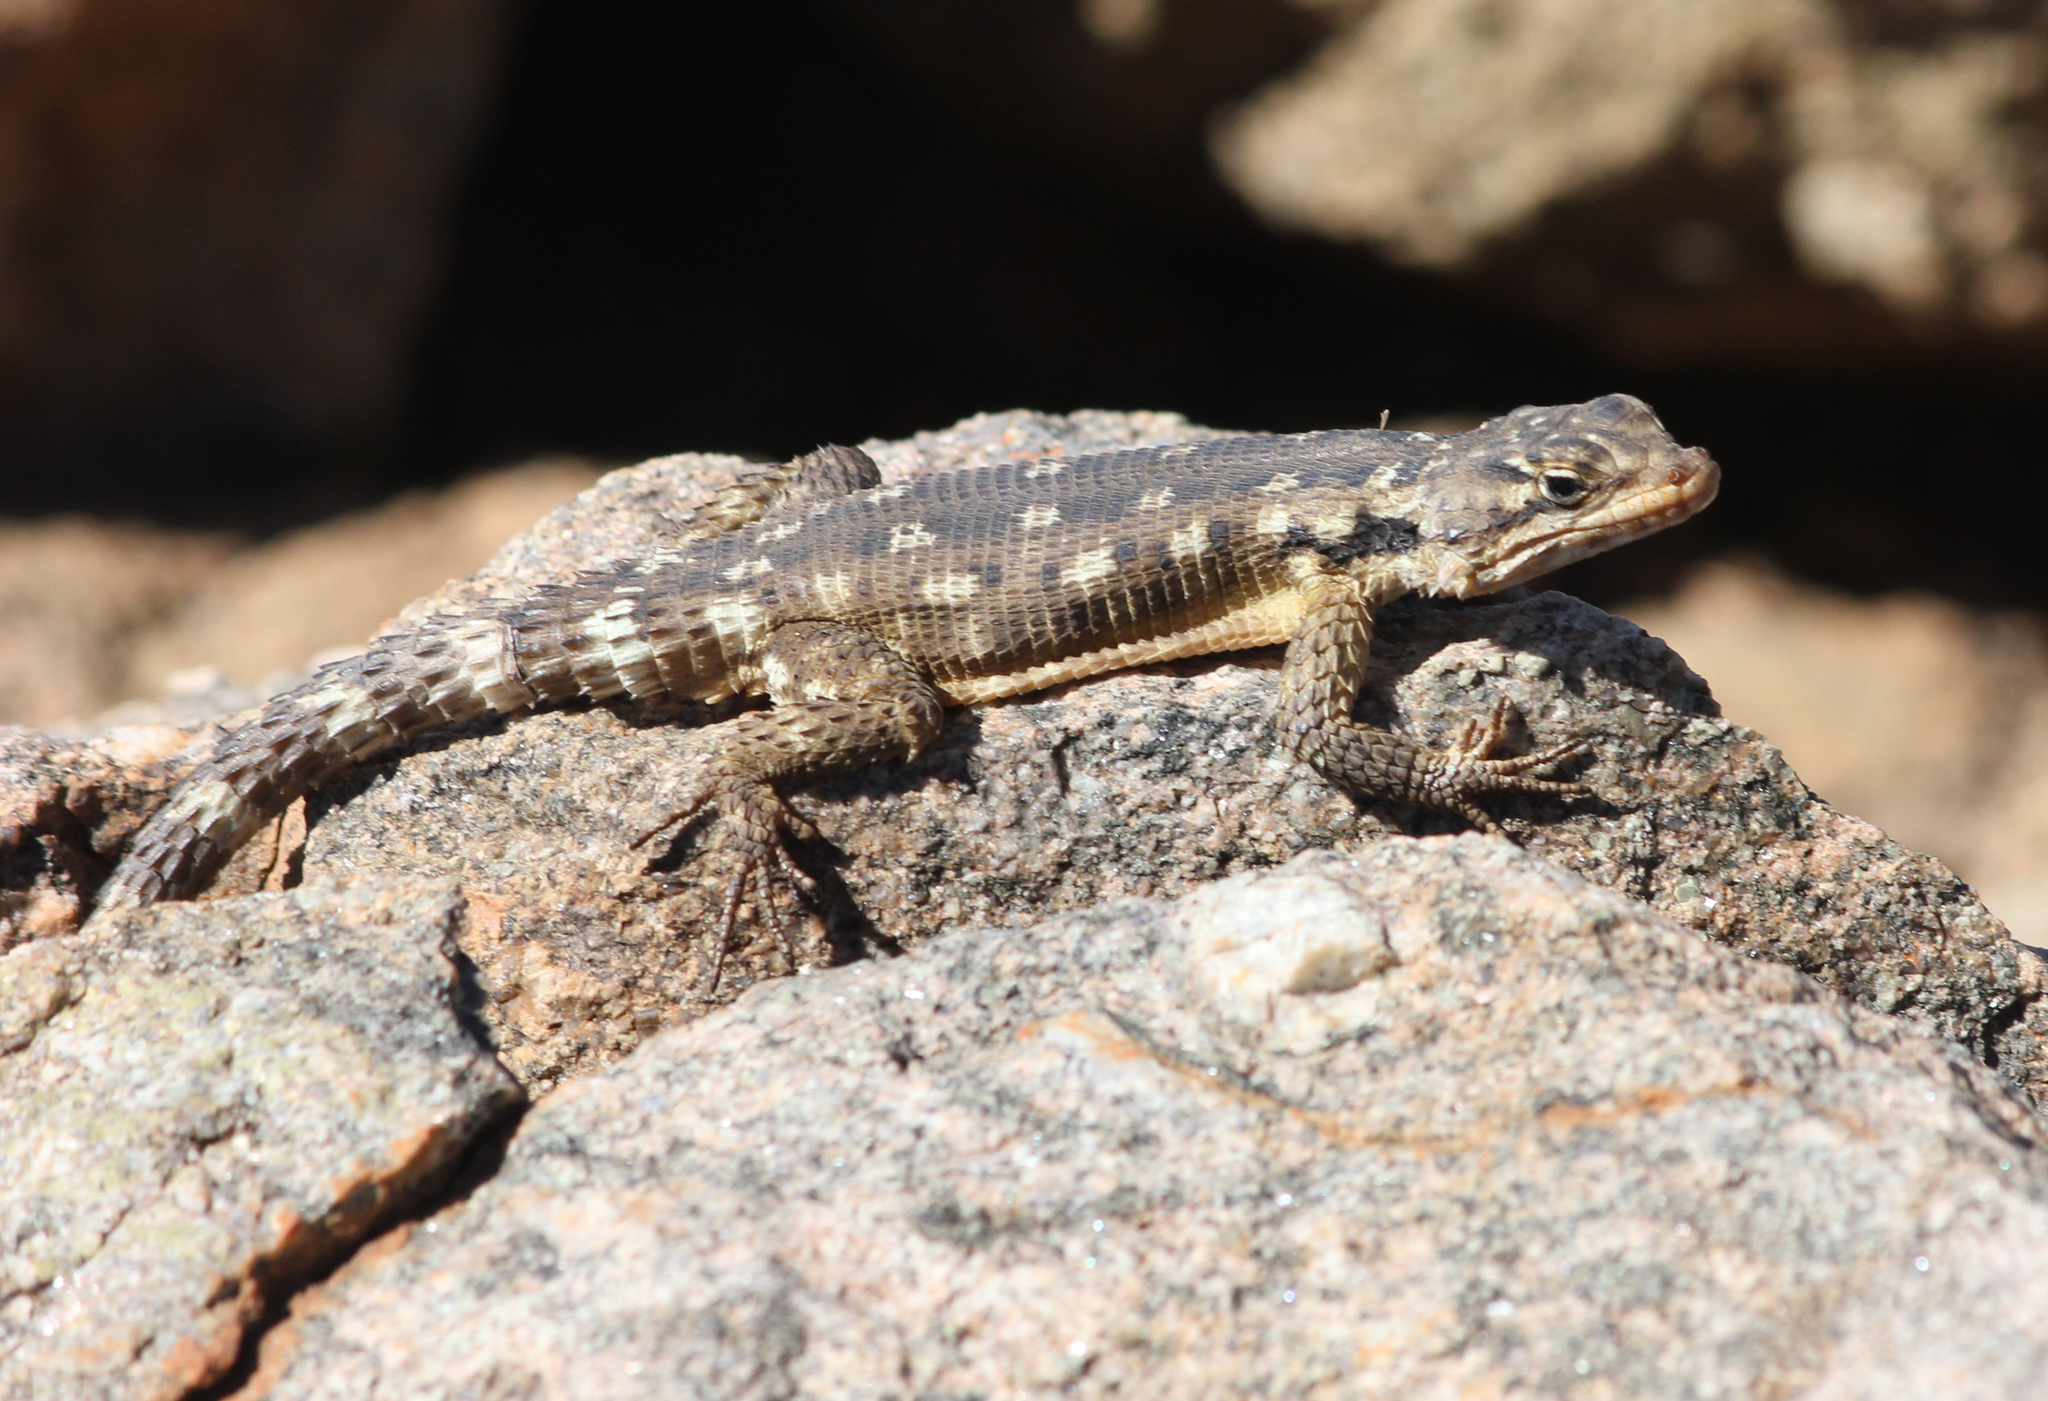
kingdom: Animalia
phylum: Chordata
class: Squamata
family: Cordylidae
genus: Karusasaurus
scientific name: Karusasaurus polyzonus
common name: Karoo girdled lizard
